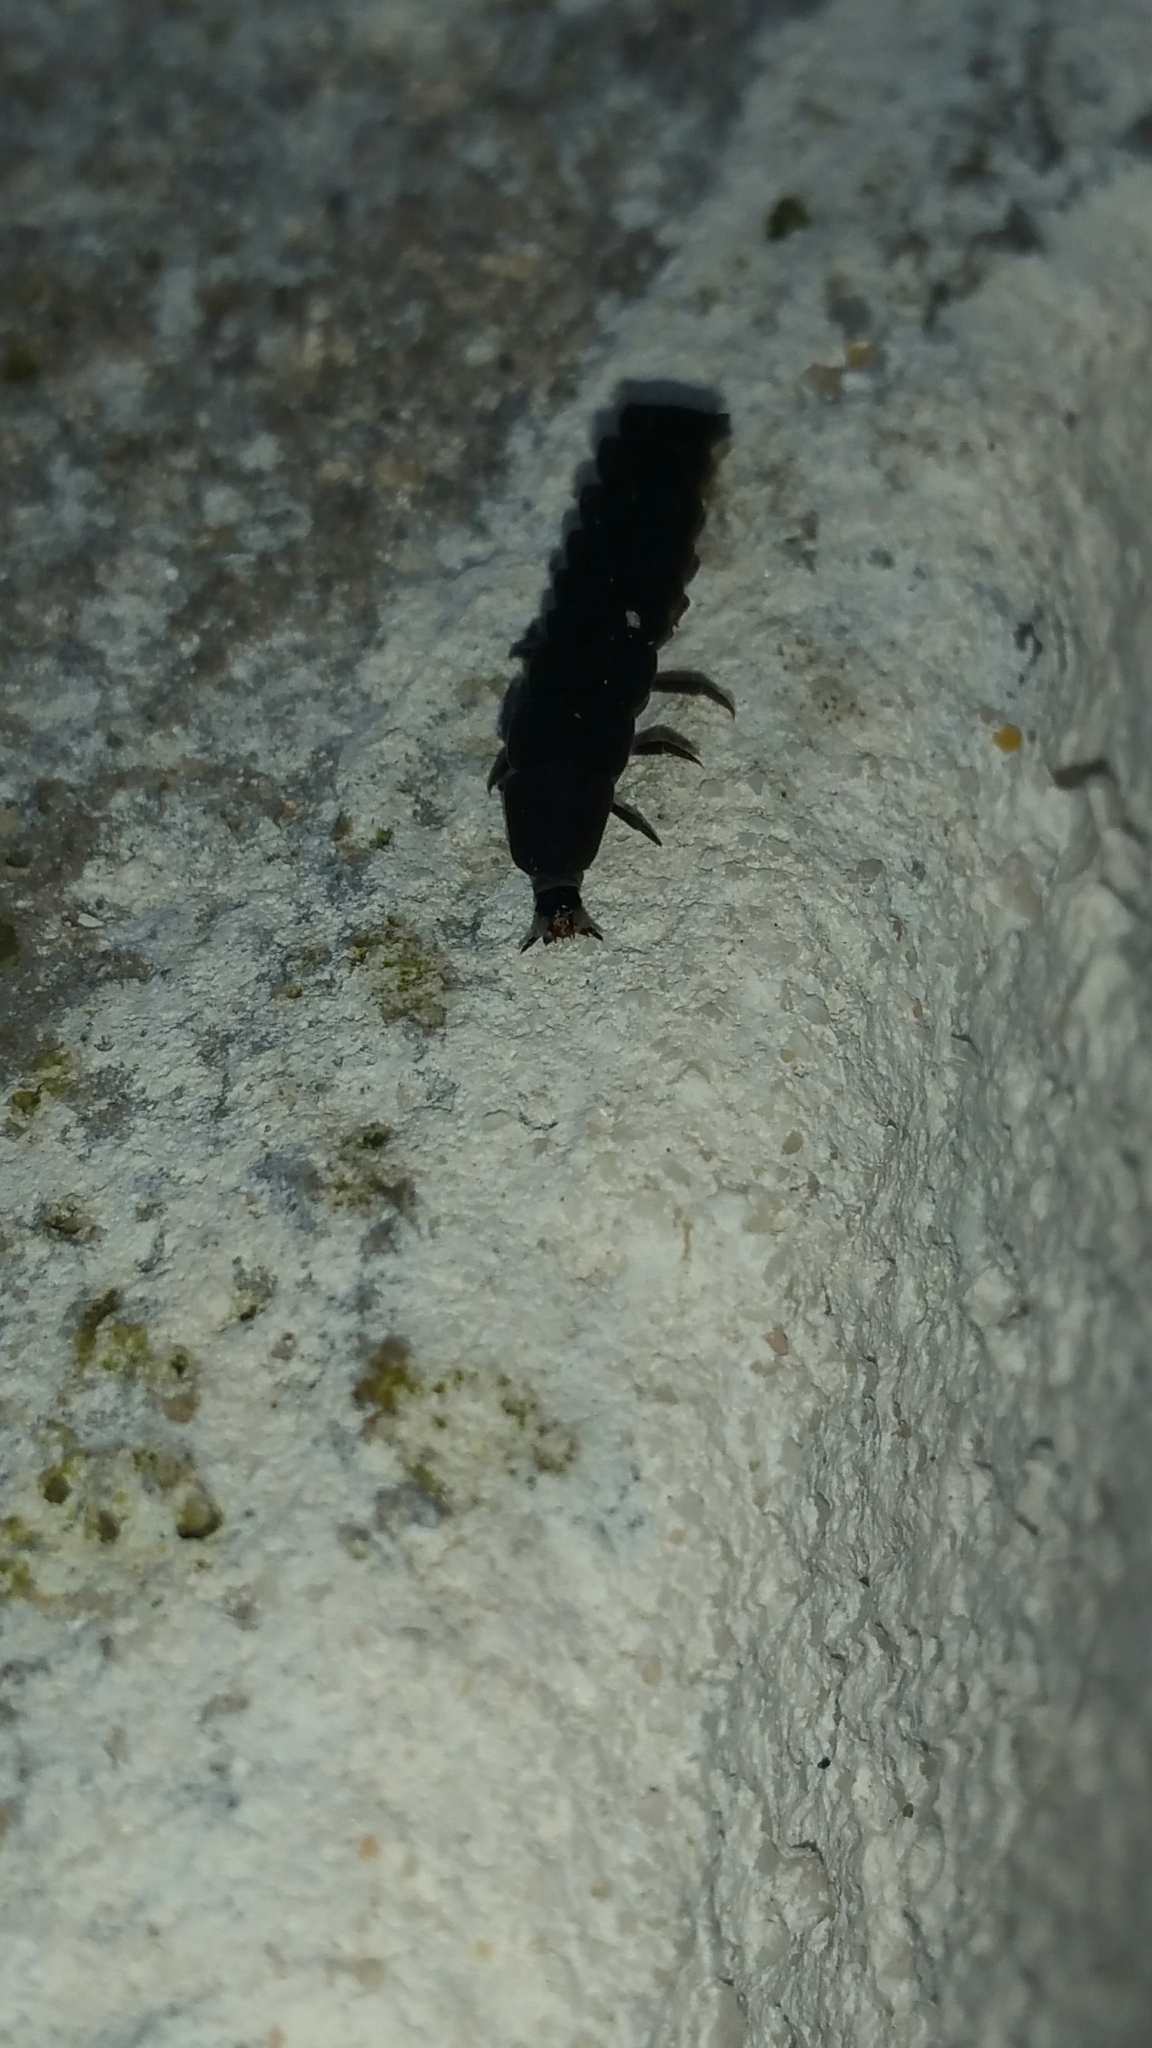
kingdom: Animalia
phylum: Arthropoda
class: Insecta
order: Coleoptera
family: Lampyridae
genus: Nyctophila
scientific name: Nyctophila reichii
